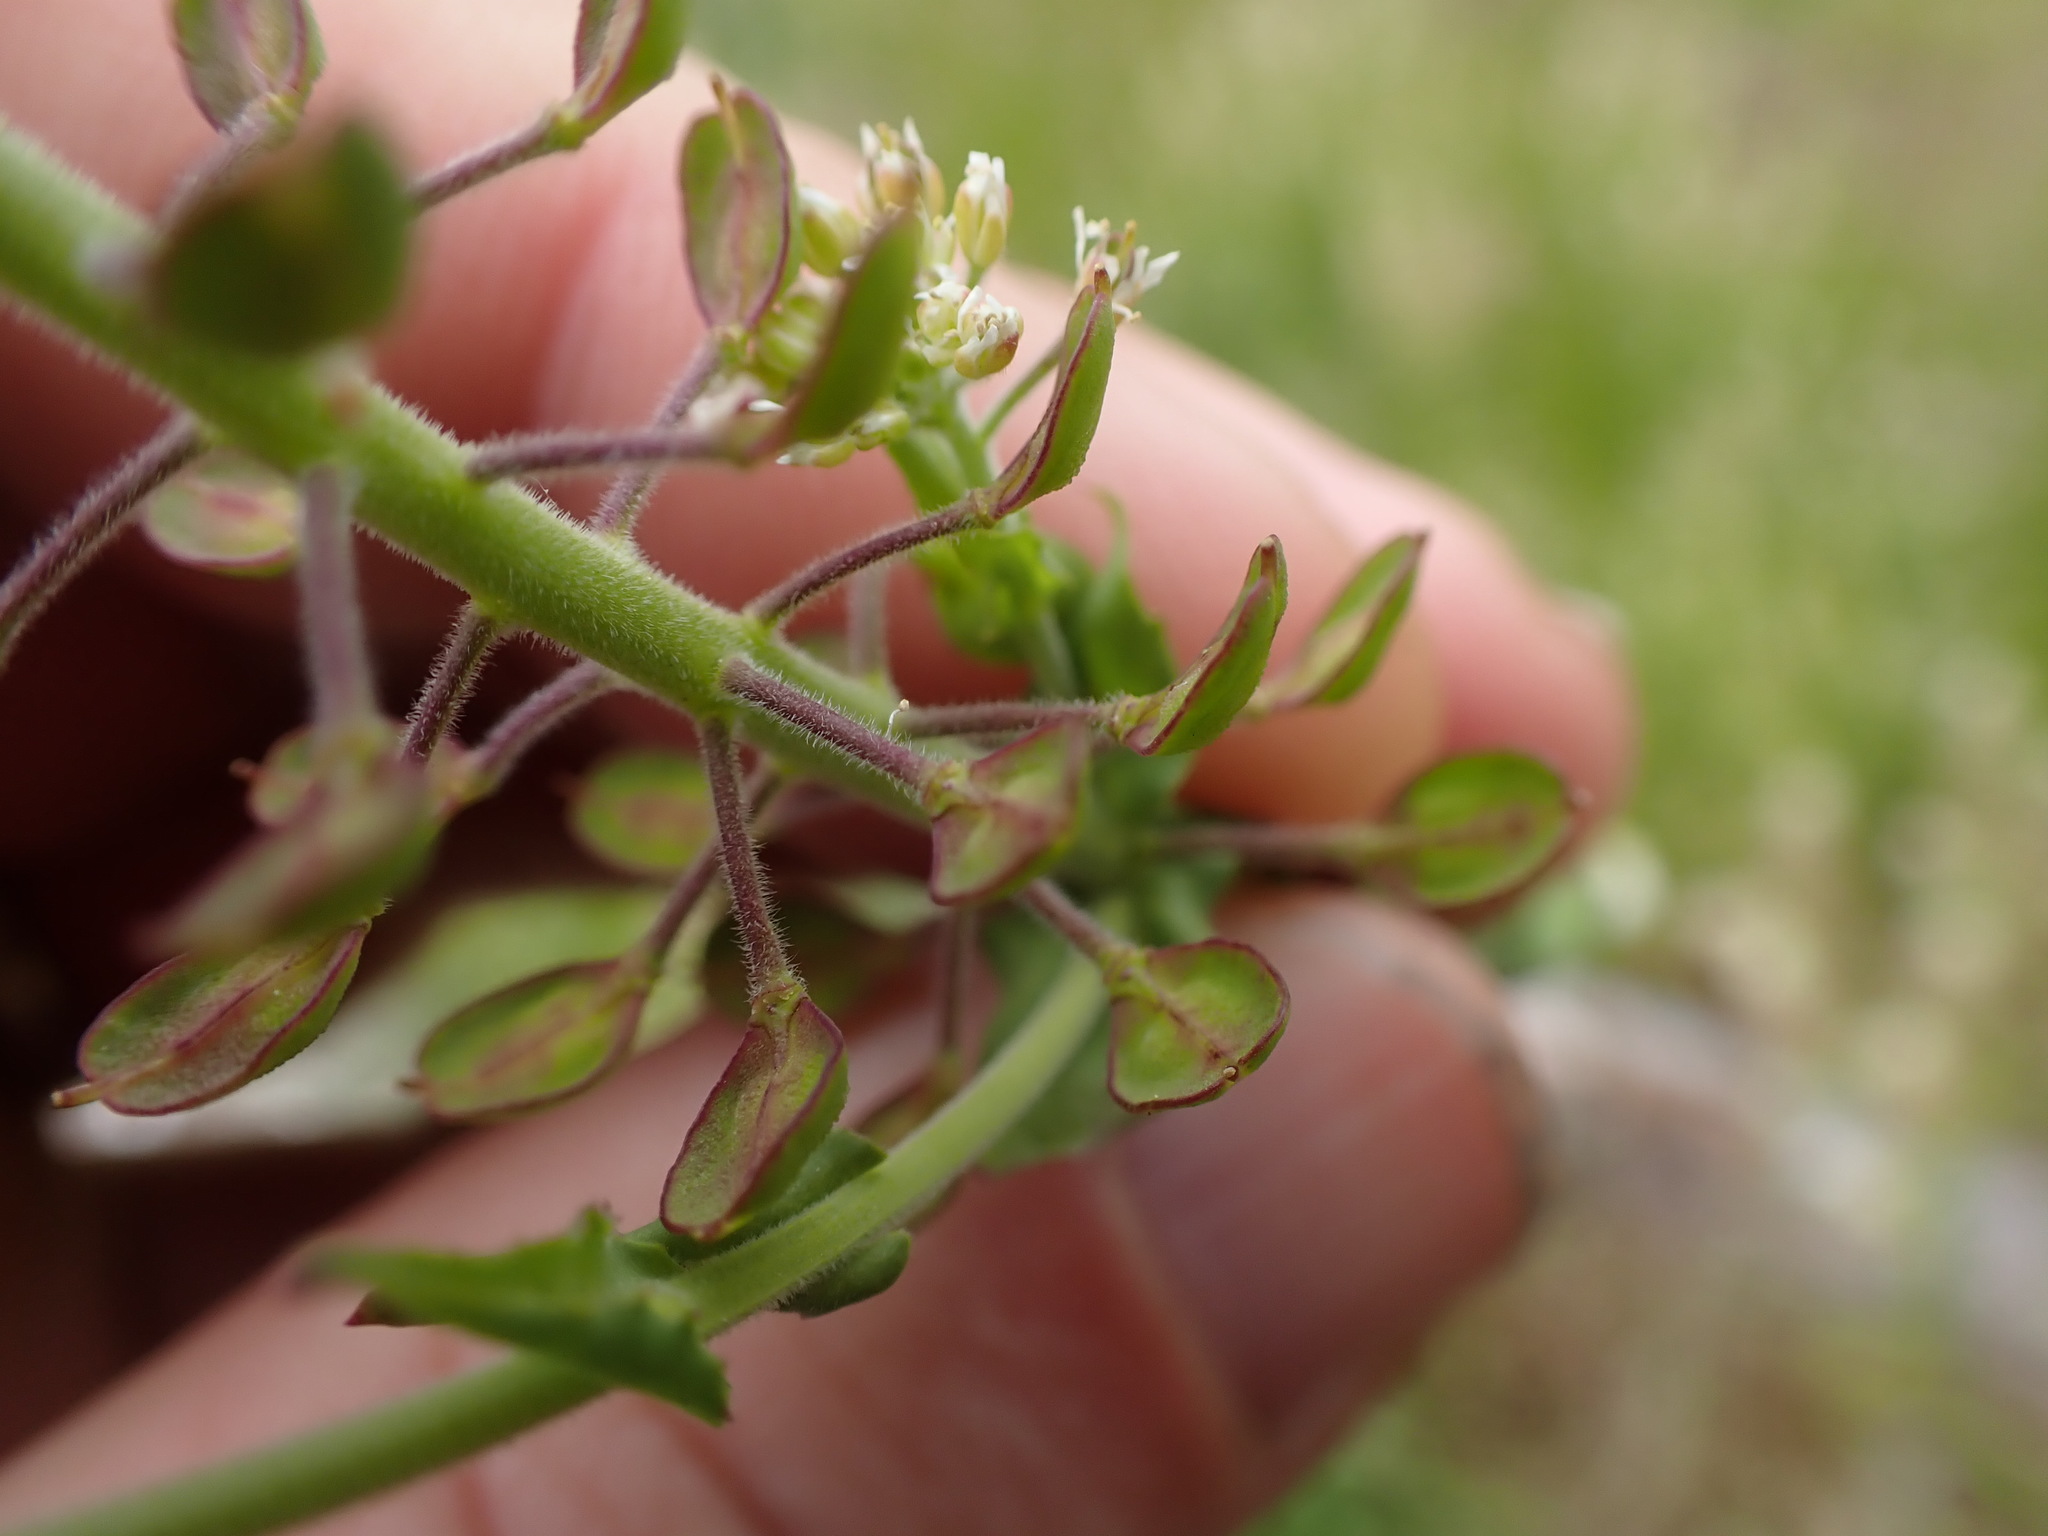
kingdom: Plantae
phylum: Tracheophyta
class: Magnoliopsida
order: Brassicales
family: Brassicaceae
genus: Lepidium
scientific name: Lepidium campestre
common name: Field pepperwort
